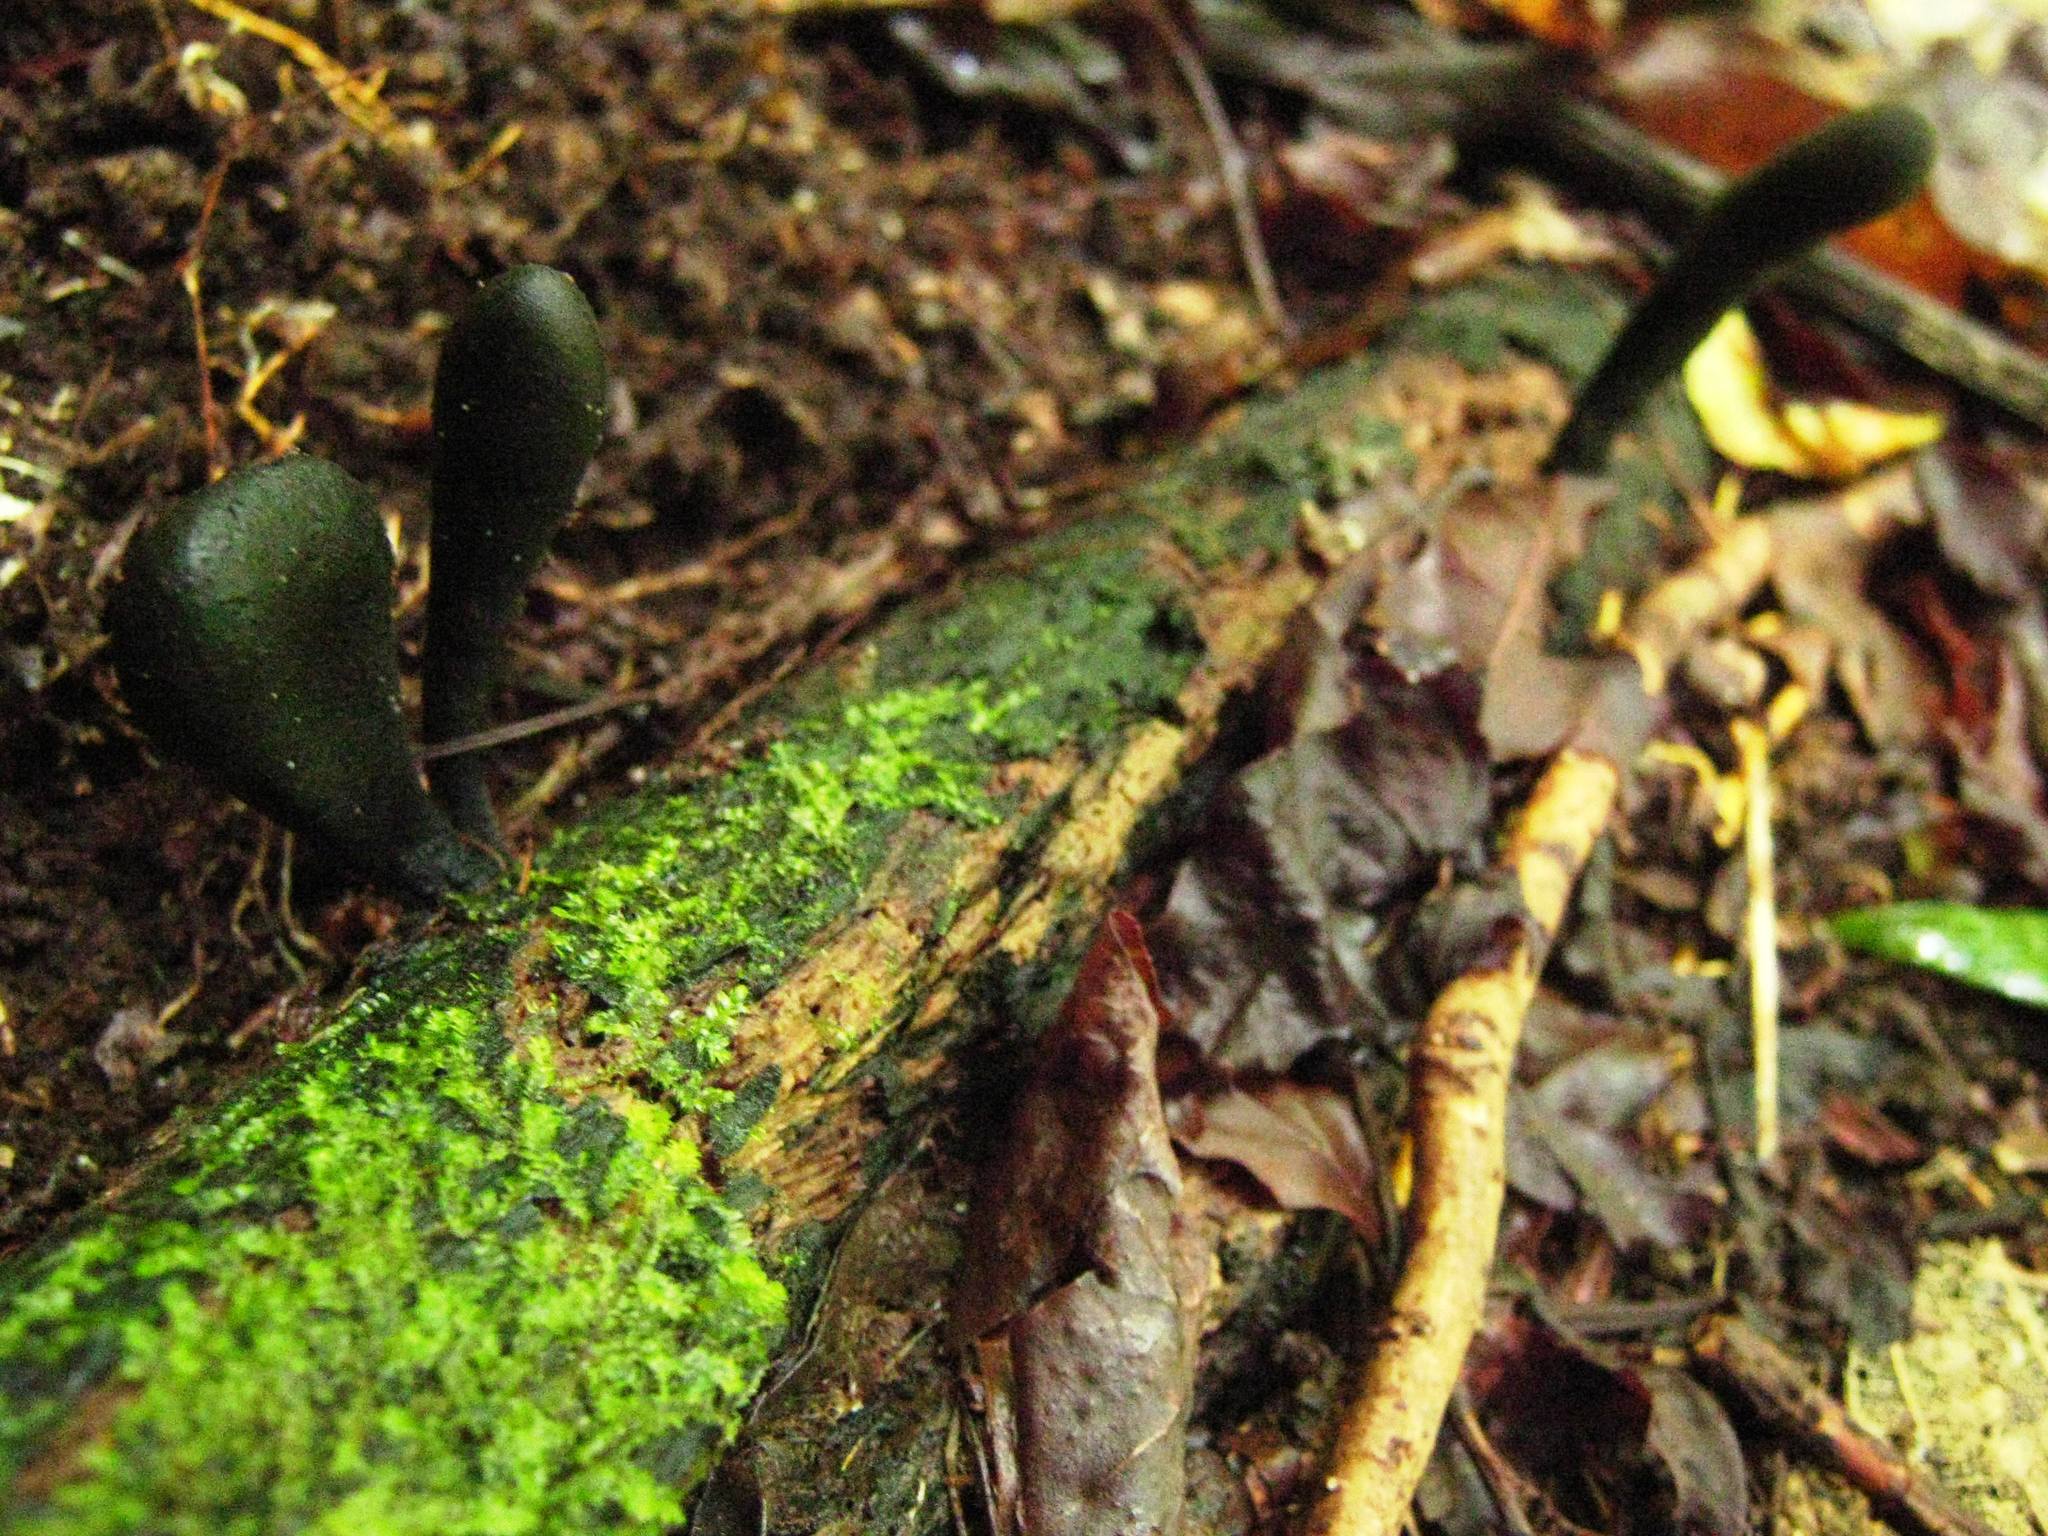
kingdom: Fungi
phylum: Ascomycota
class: Sordariomycetes
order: Xylariales
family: Xylariaceae
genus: Xylaria
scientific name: Xylaria cubensis
